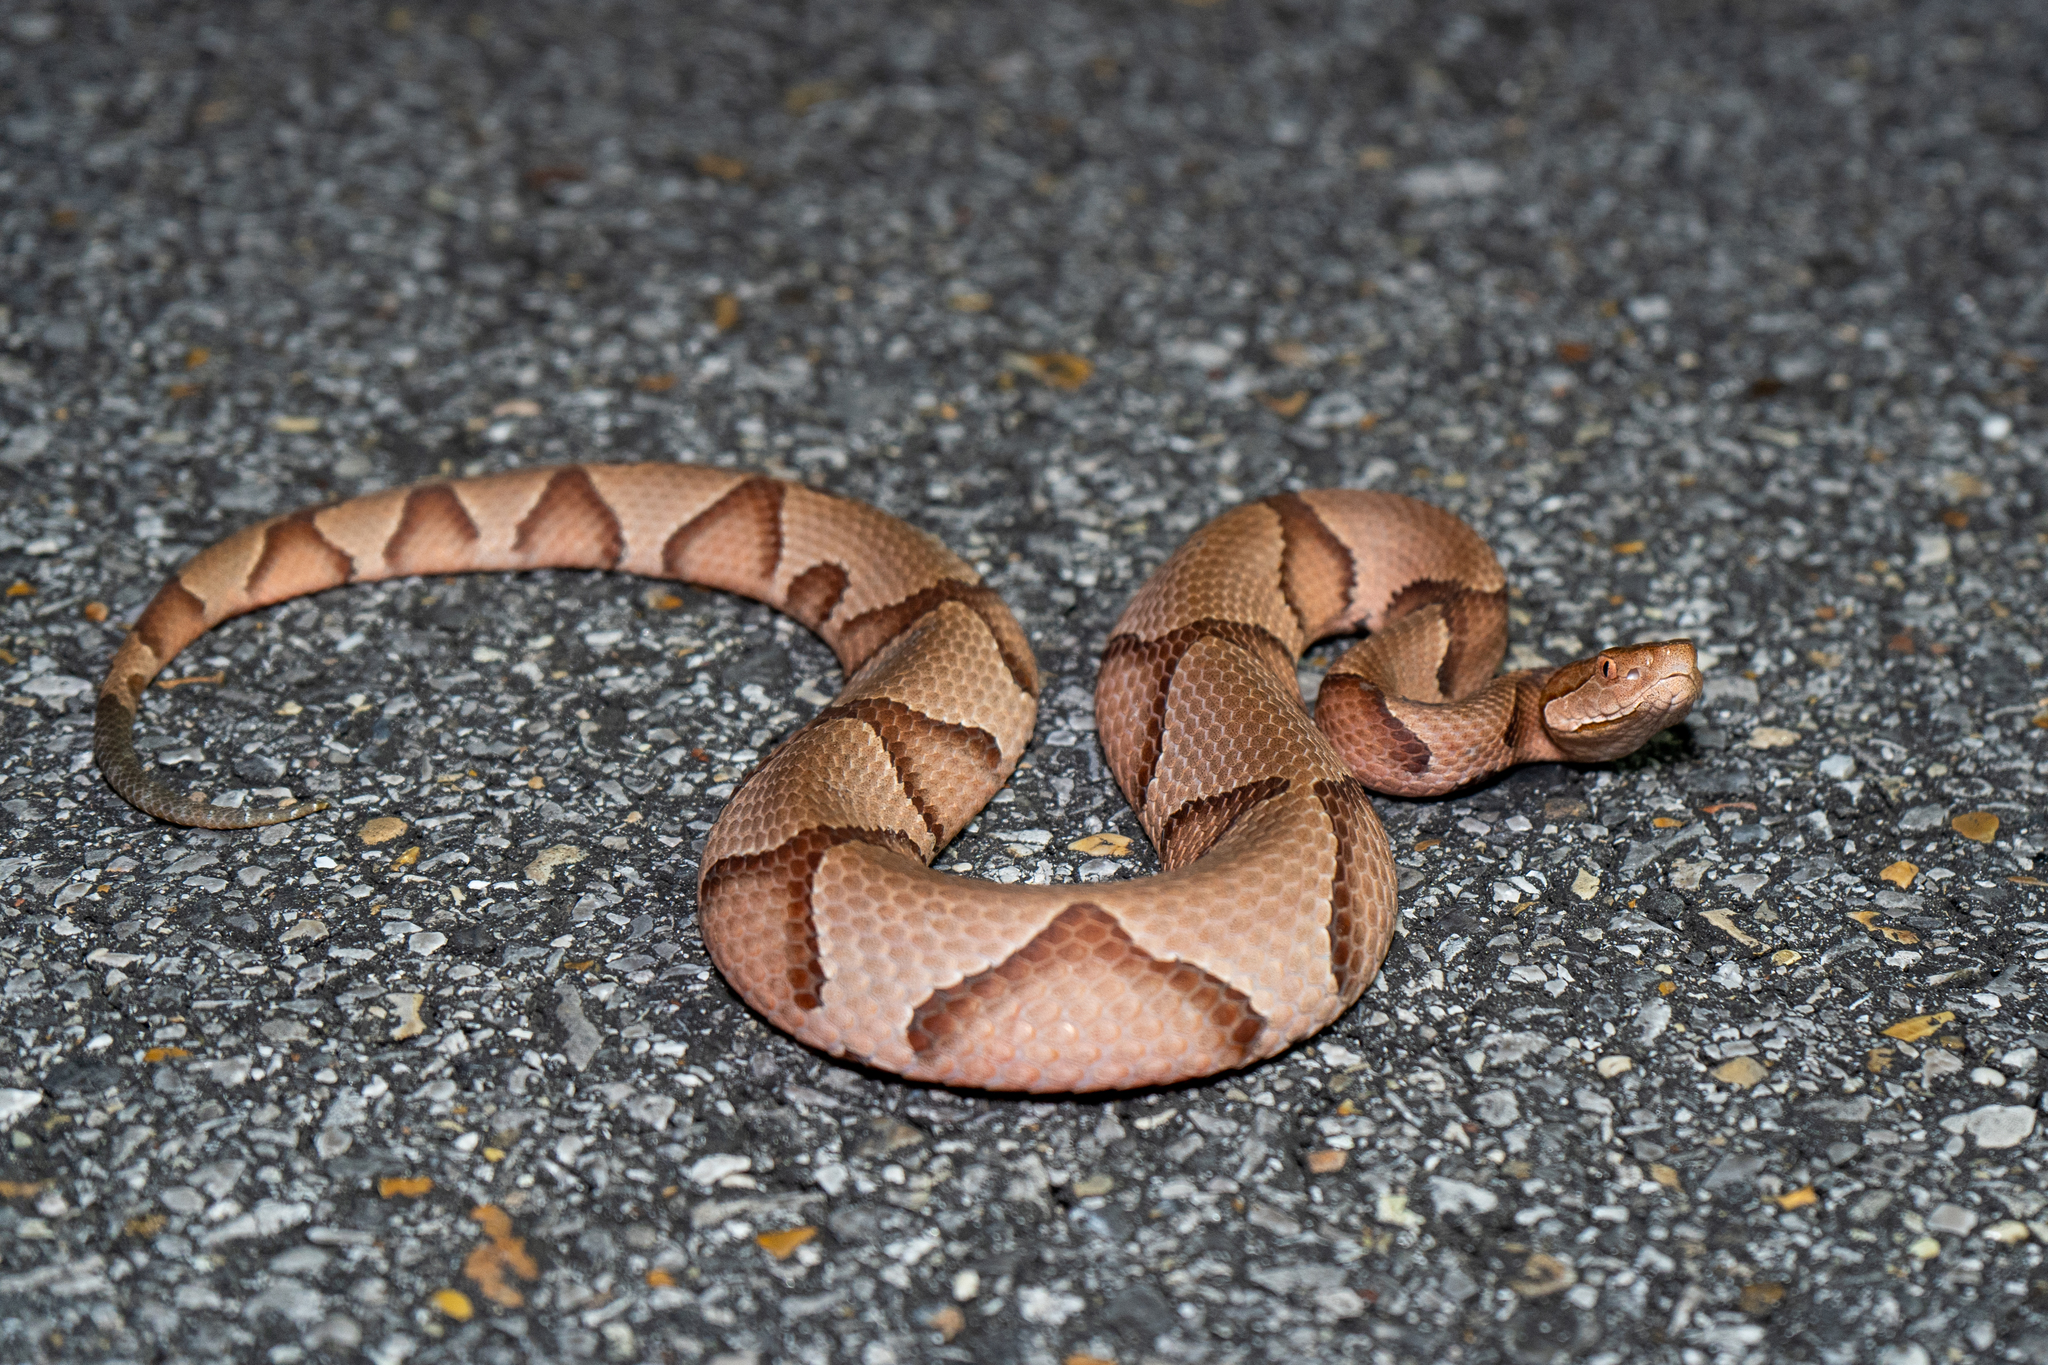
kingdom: Animalia
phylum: Chordata
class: Squamata
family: Viperidae
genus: Agkistrodon
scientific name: Agkistrodon contortrix
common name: Northern copperhead
